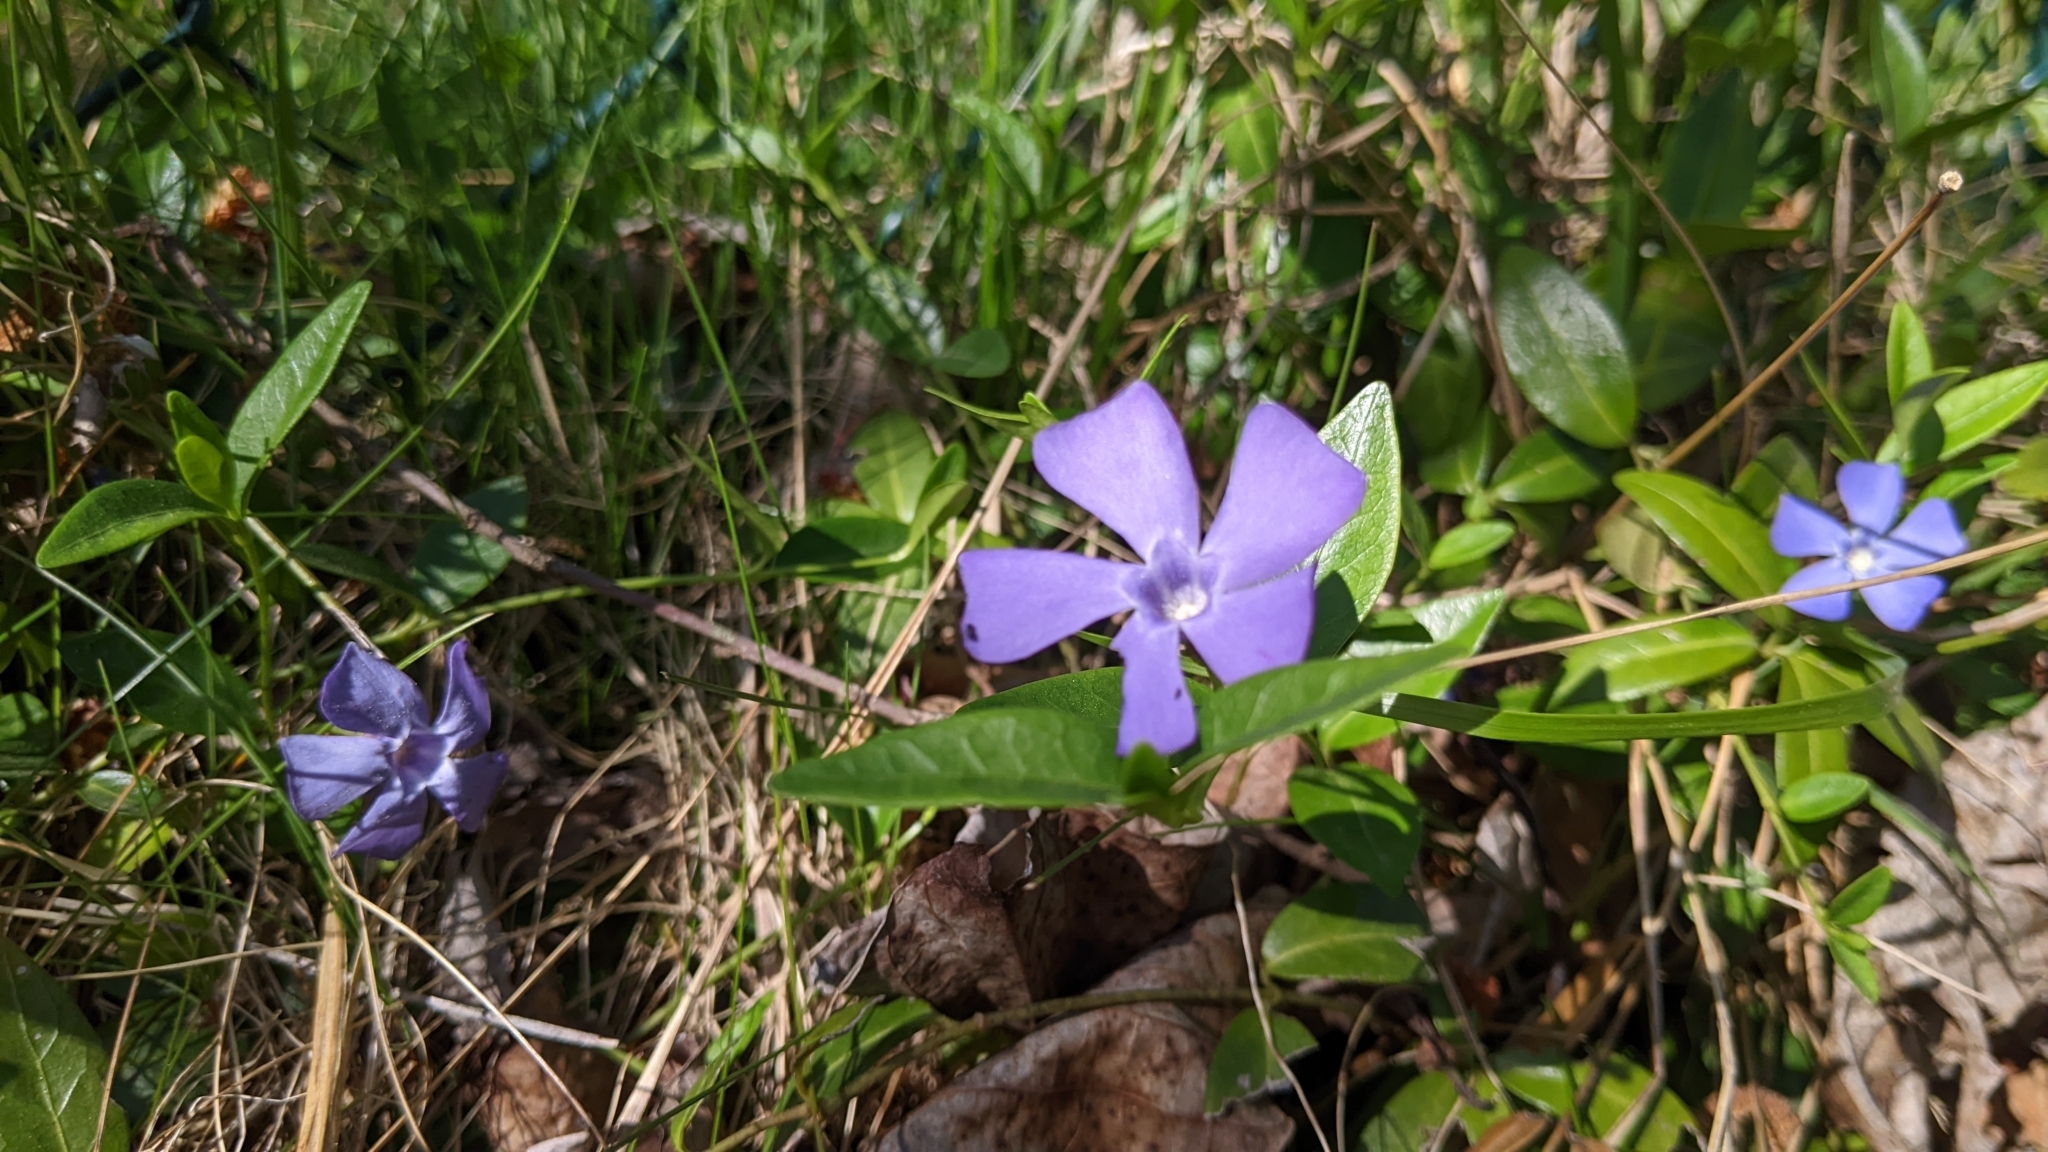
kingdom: Plantae
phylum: Tracheophyta
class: Magnoliopsida
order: Gentianales
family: Apocynaceae
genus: Vinca
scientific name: Vinca minor
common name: Lesser periwinkle
